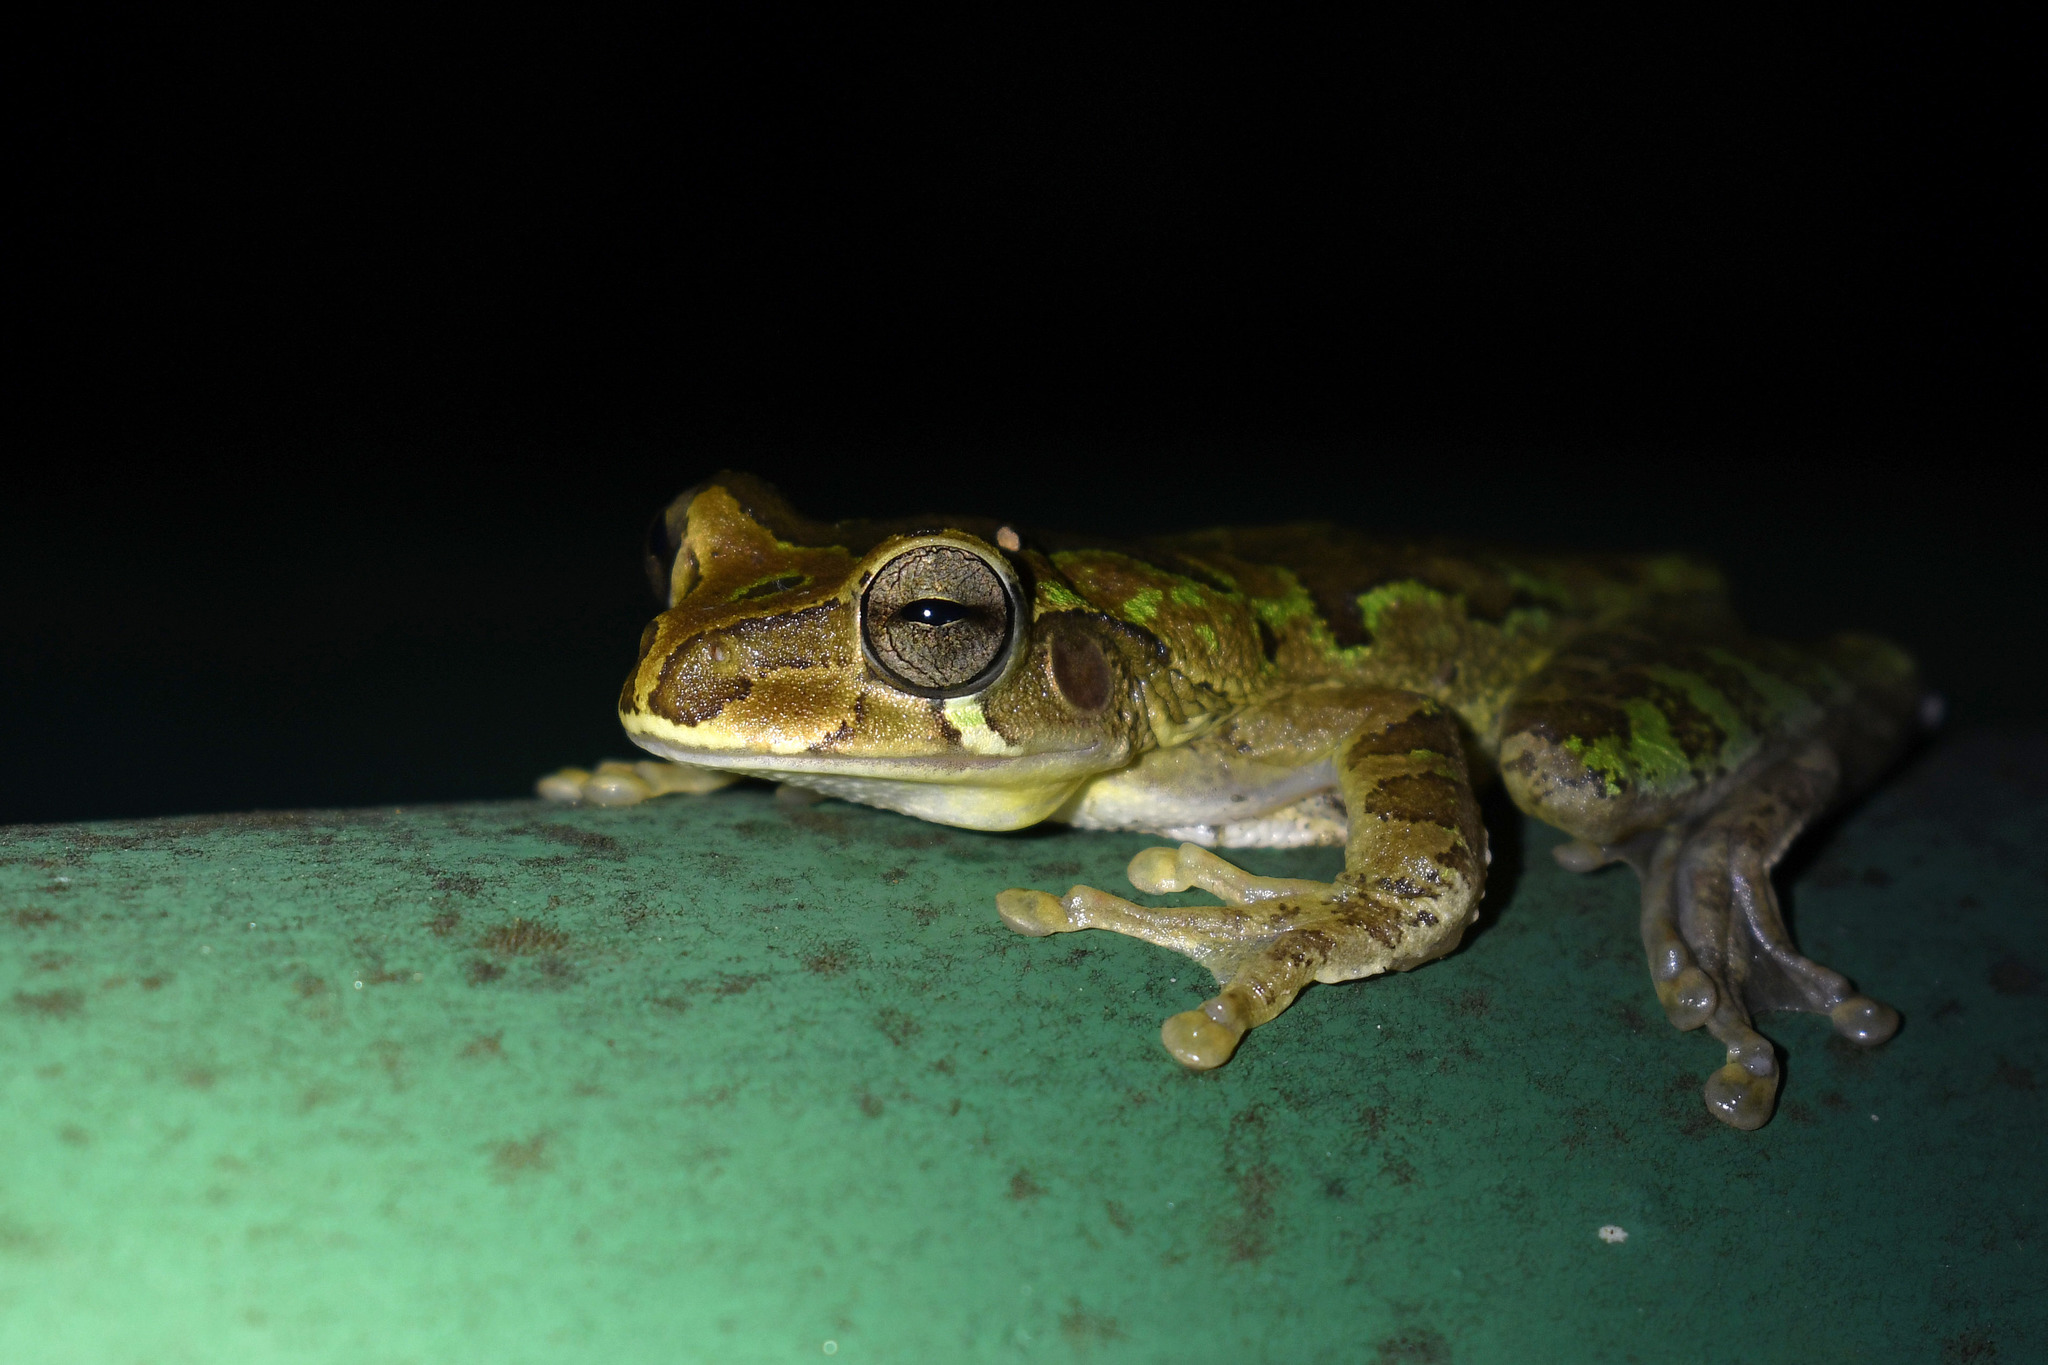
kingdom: Animalia
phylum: Chordata
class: Amphibia
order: Anura
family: Hylidae
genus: Smilisca
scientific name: Smilisca manisorum
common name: Masked tree frog
